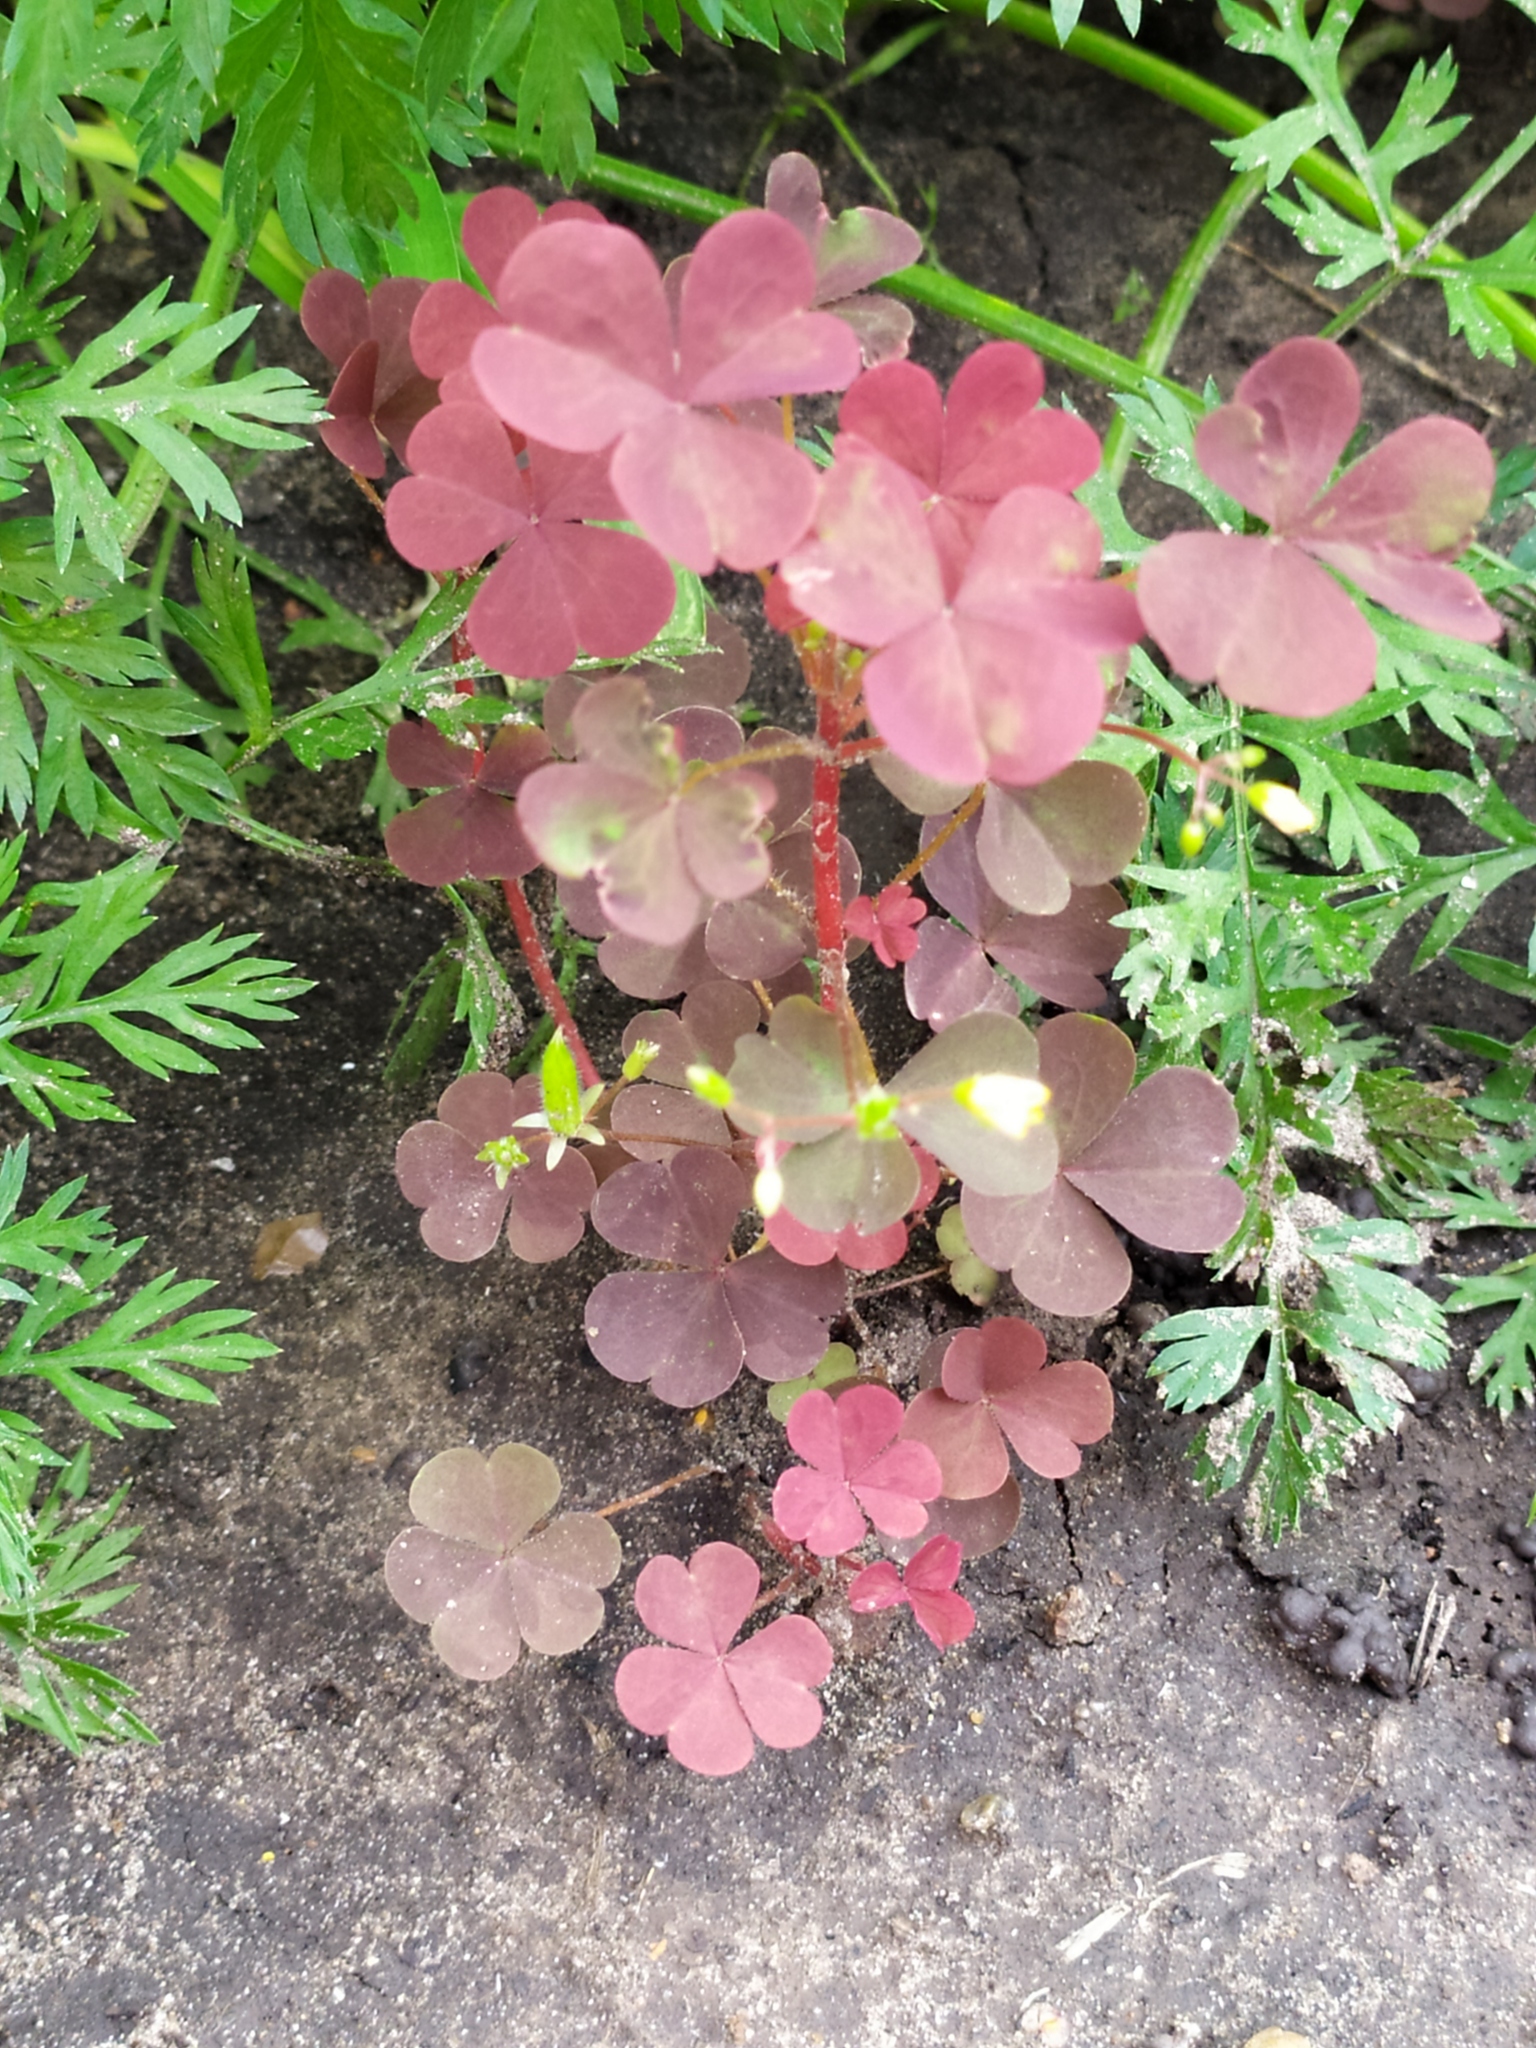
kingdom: Plantae
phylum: Tracheophyta
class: Magnoliopsida
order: Oxalidales
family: Oxalidaceae
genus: Oxalis
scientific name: Oxalis stricta
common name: Upright yellow-sorrel
